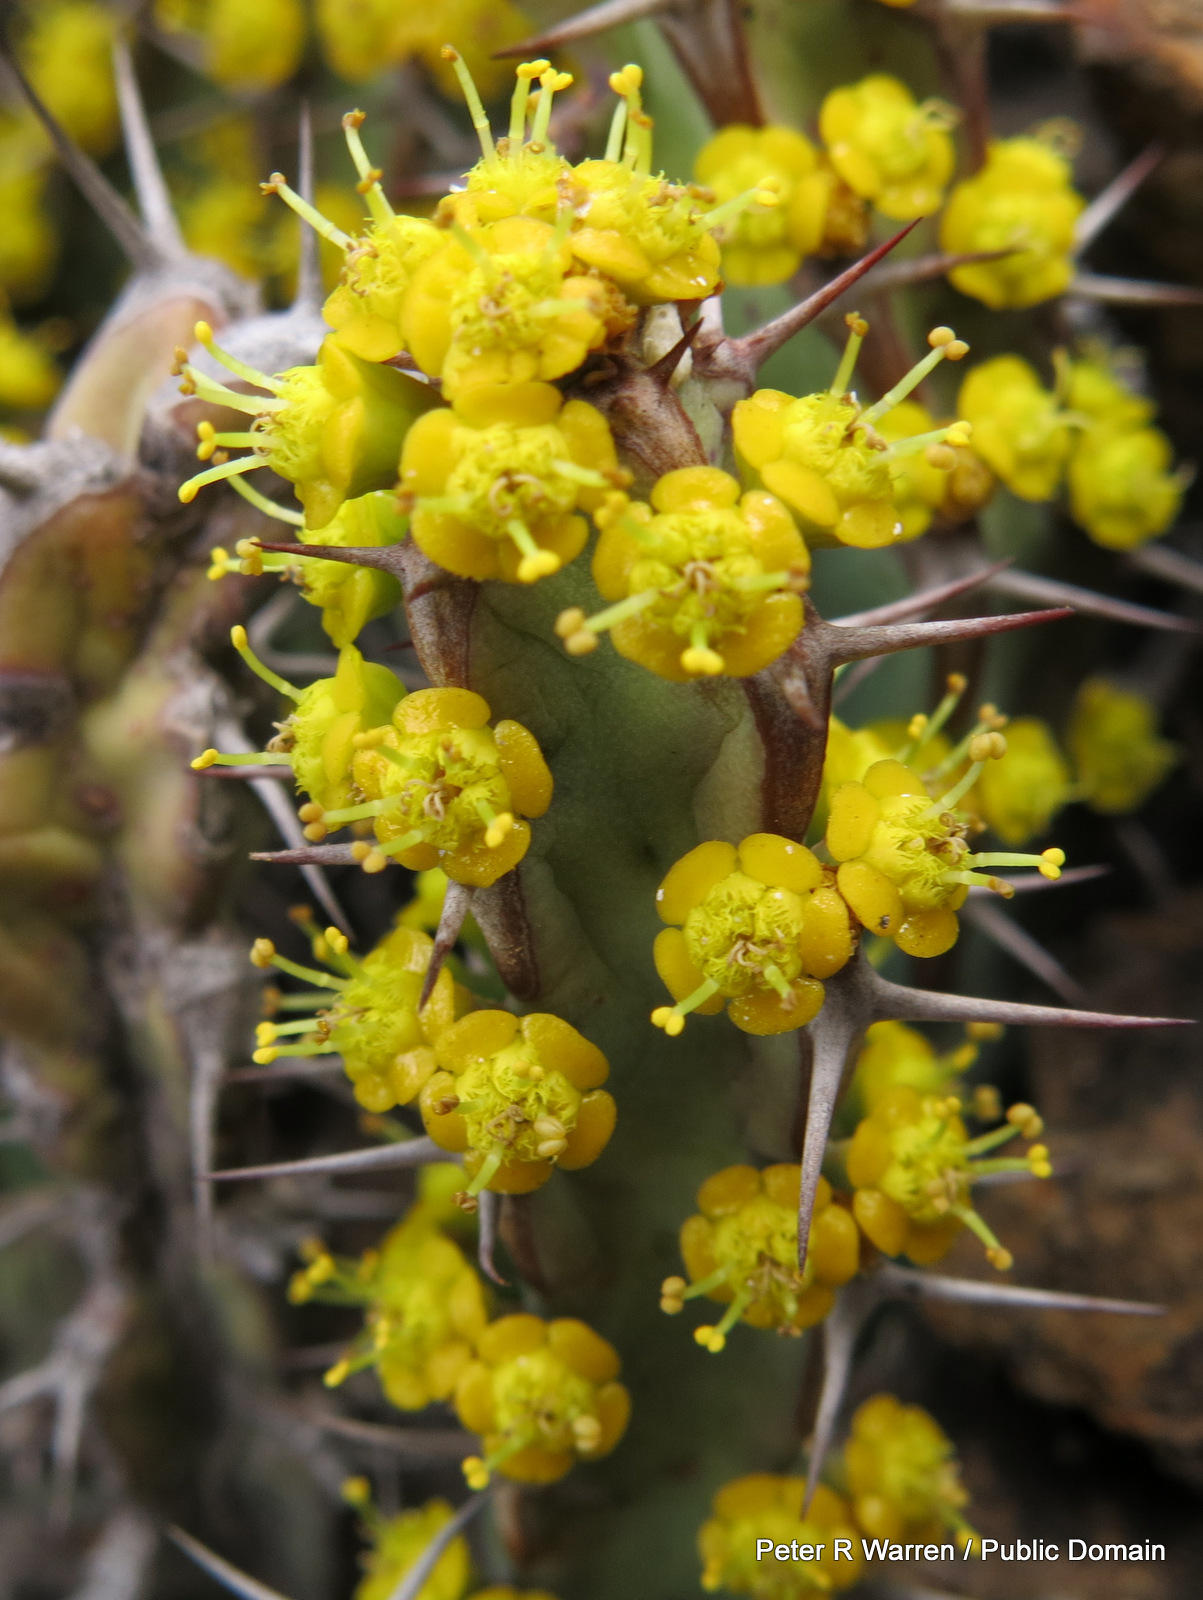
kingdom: Plantae
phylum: Tracheophyta
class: Magnoliopsida
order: Malpighiales
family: Euphorbiaceae
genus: Euphorbia
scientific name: Euphorbia schinzii
